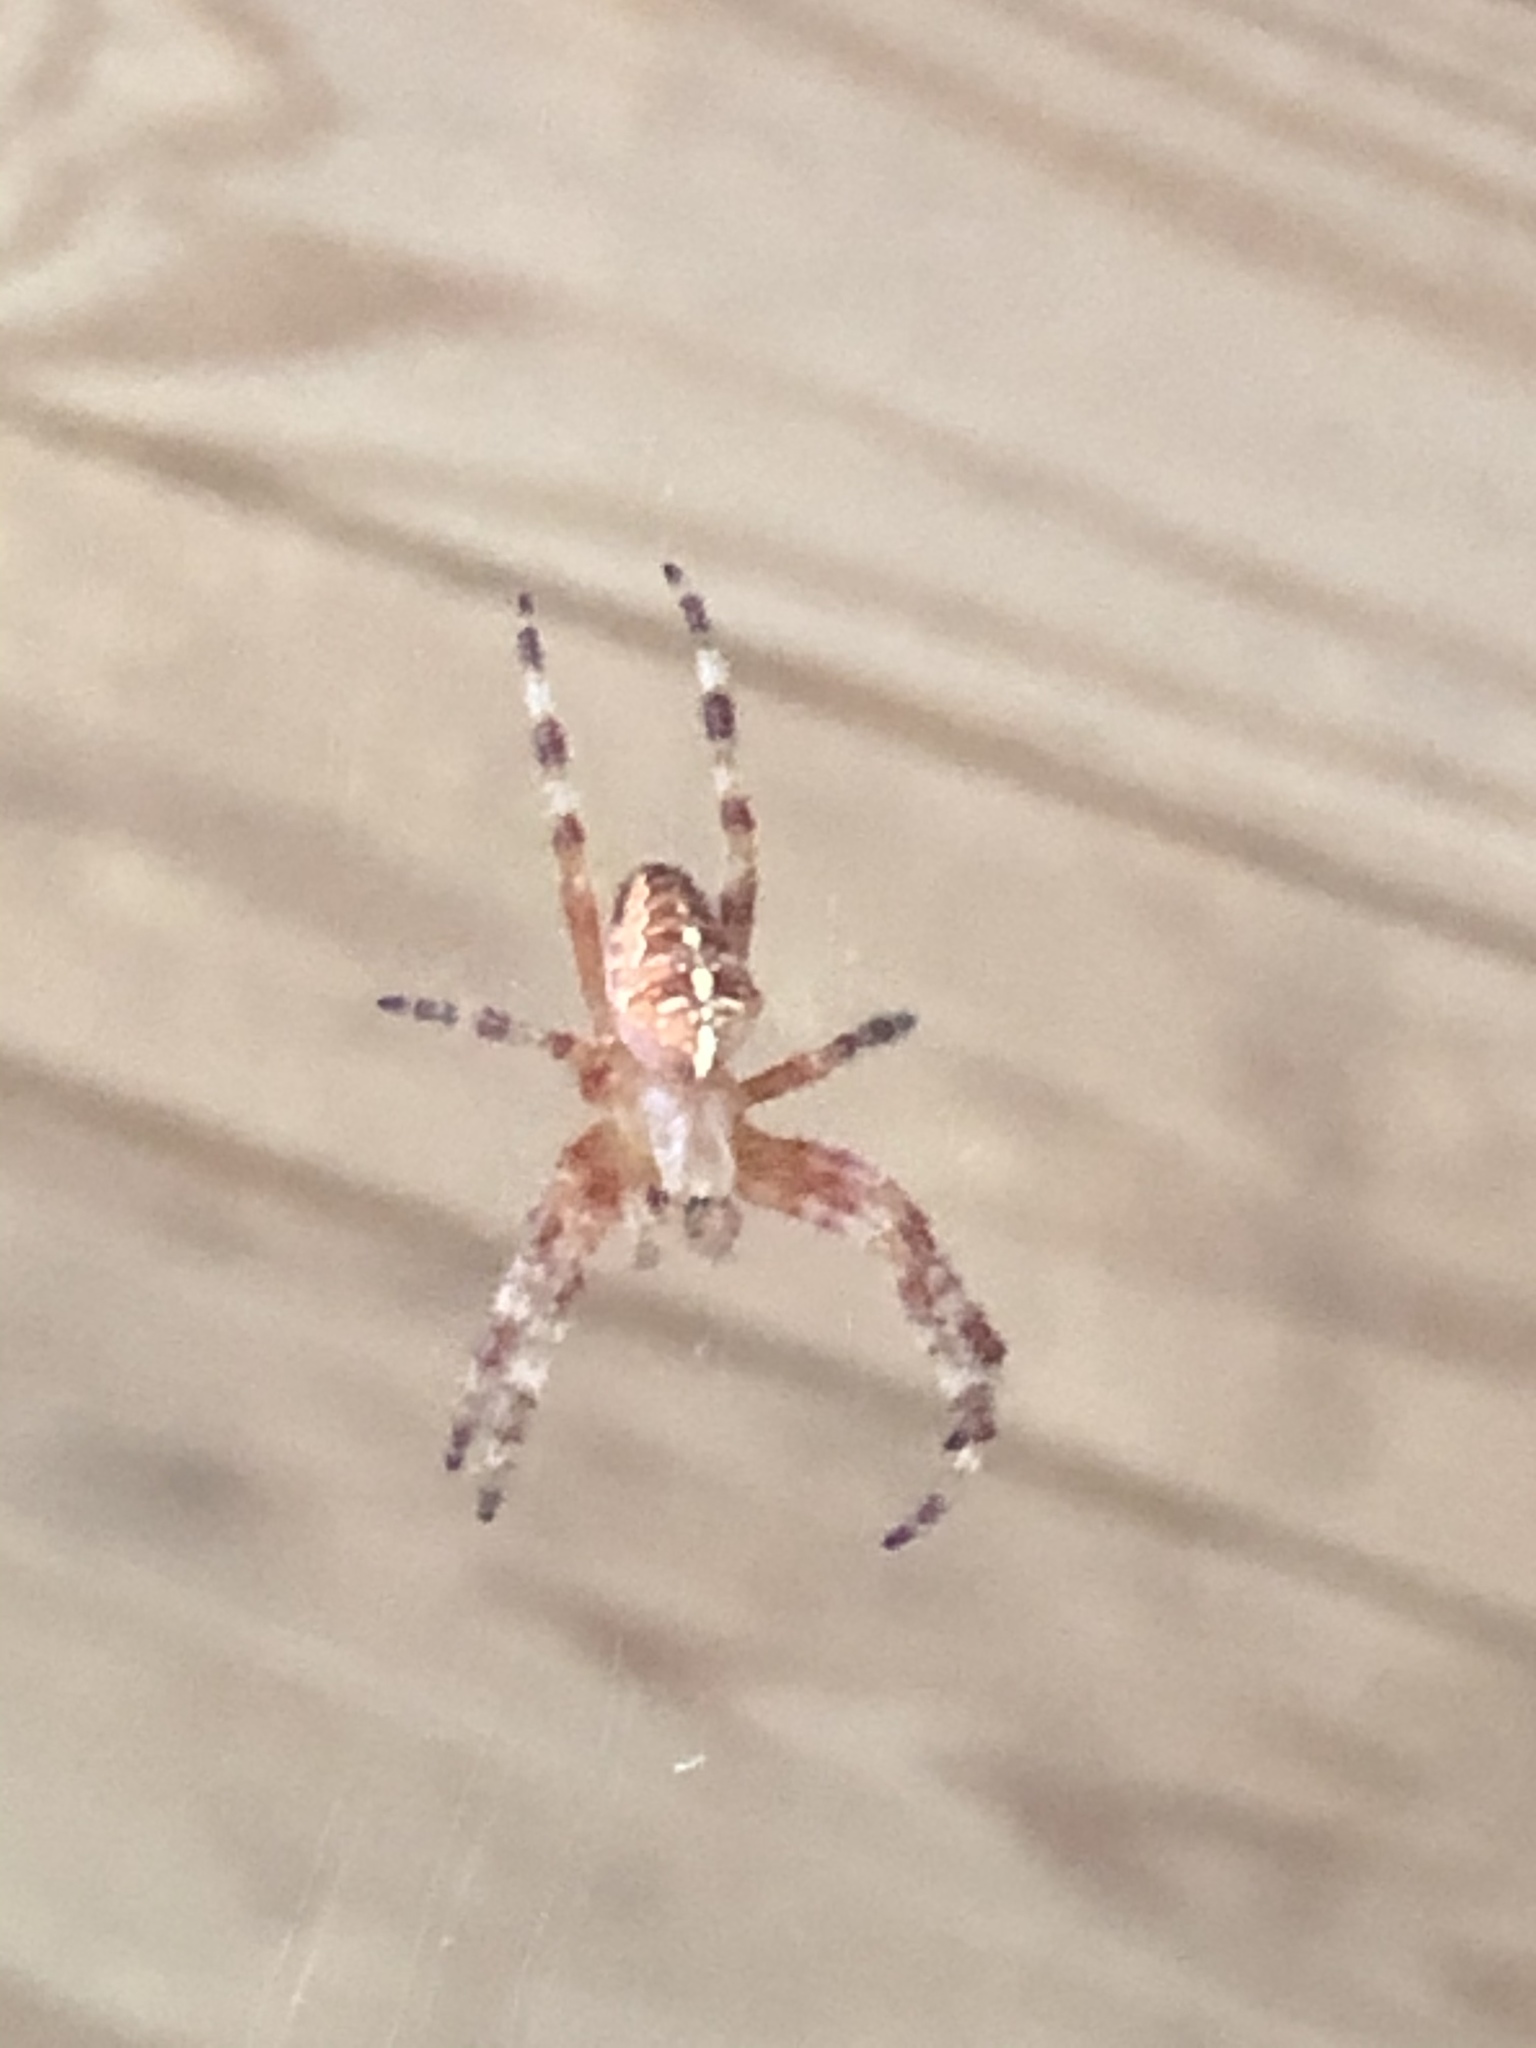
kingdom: Animalia
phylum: Arthropoda
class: Arachnida
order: Araneae
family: Araneidae
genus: Araneus
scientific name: Araneus diadematus
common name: Cross orbweaver
